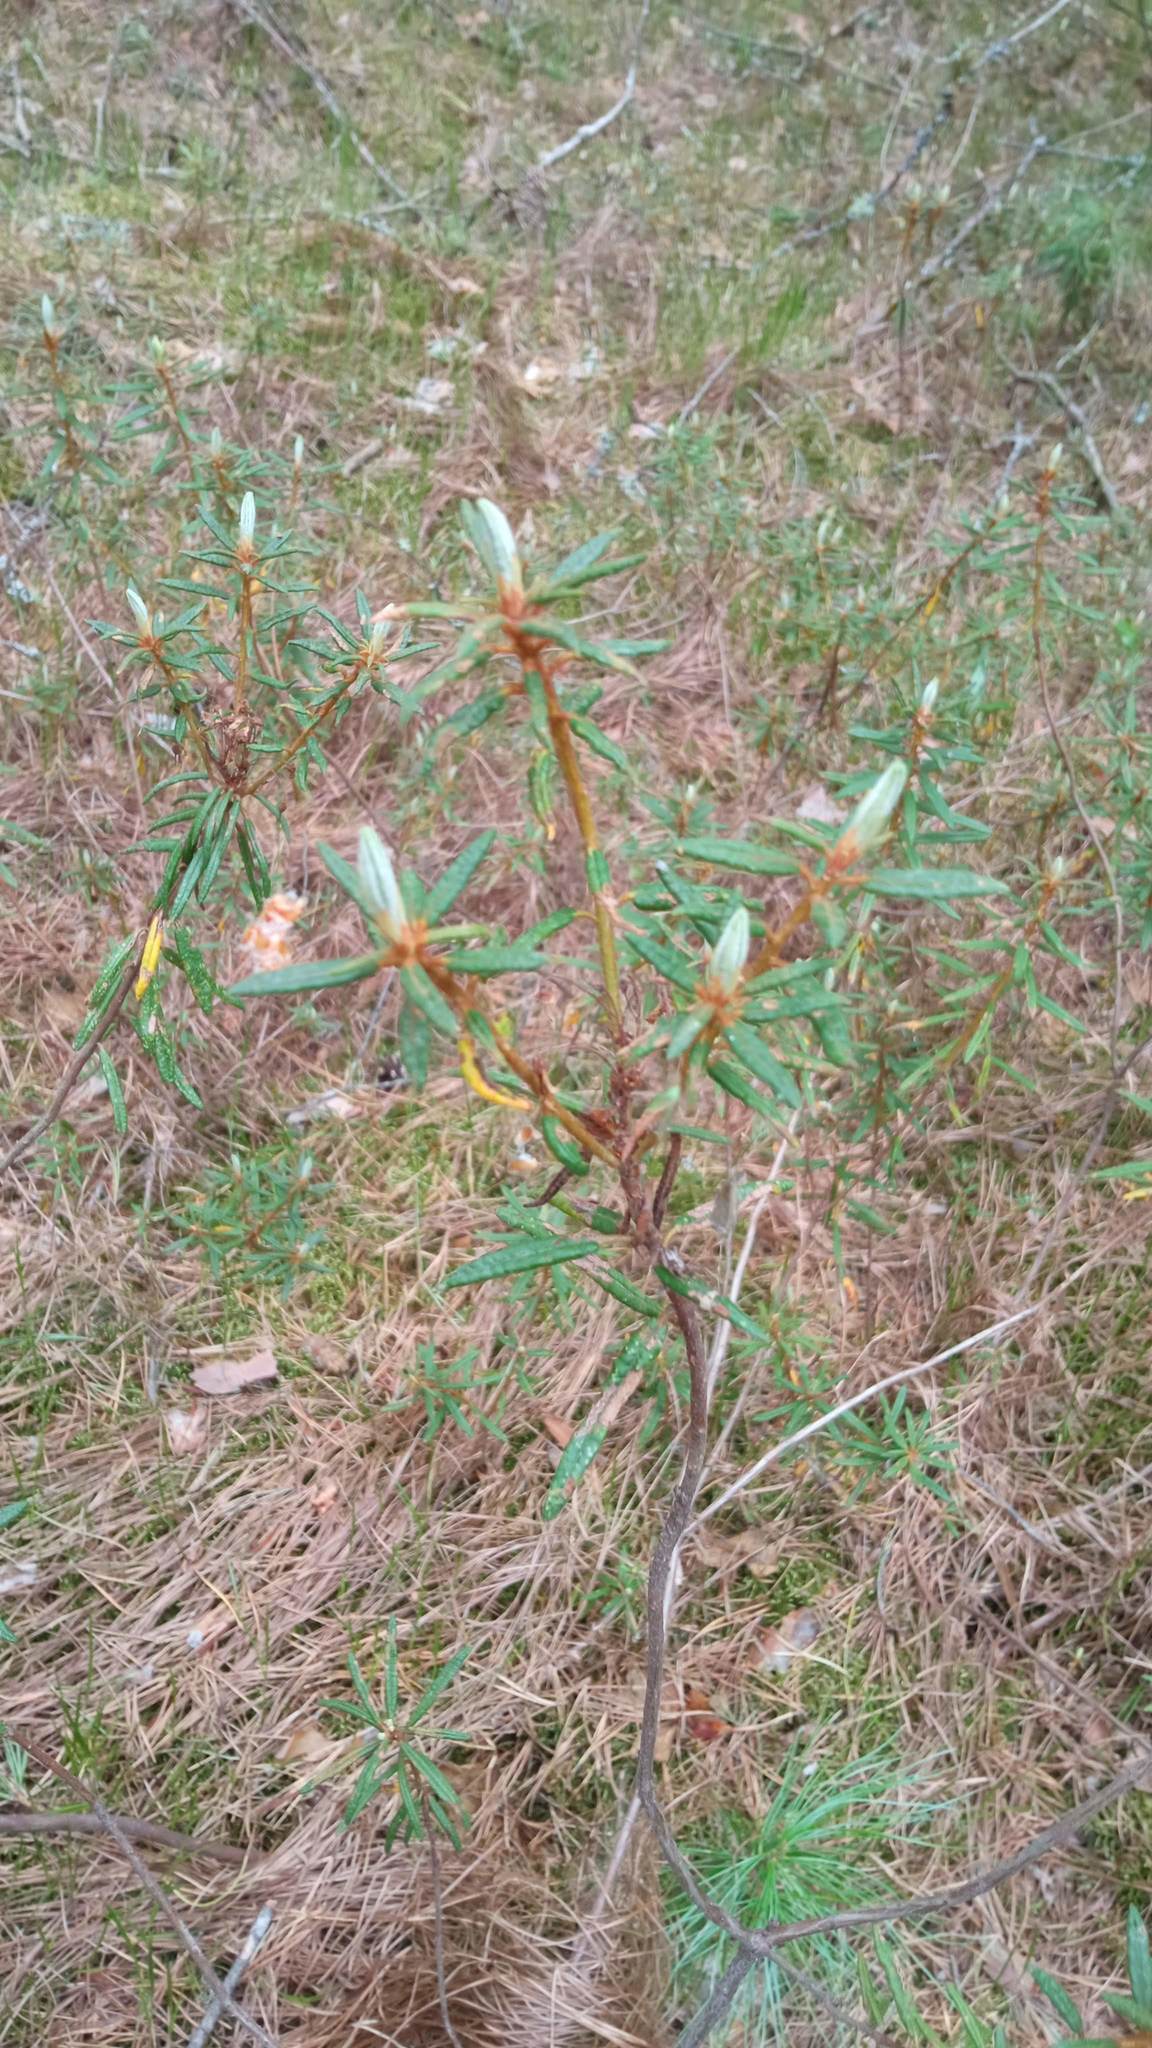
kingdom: Plantae
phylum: Tracheophyta
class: Magnoliopsida
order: Ericales
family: Ericaceae
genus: Rhododendron
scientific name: Rhododendron tomentosum
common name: Marsh labrador tea
